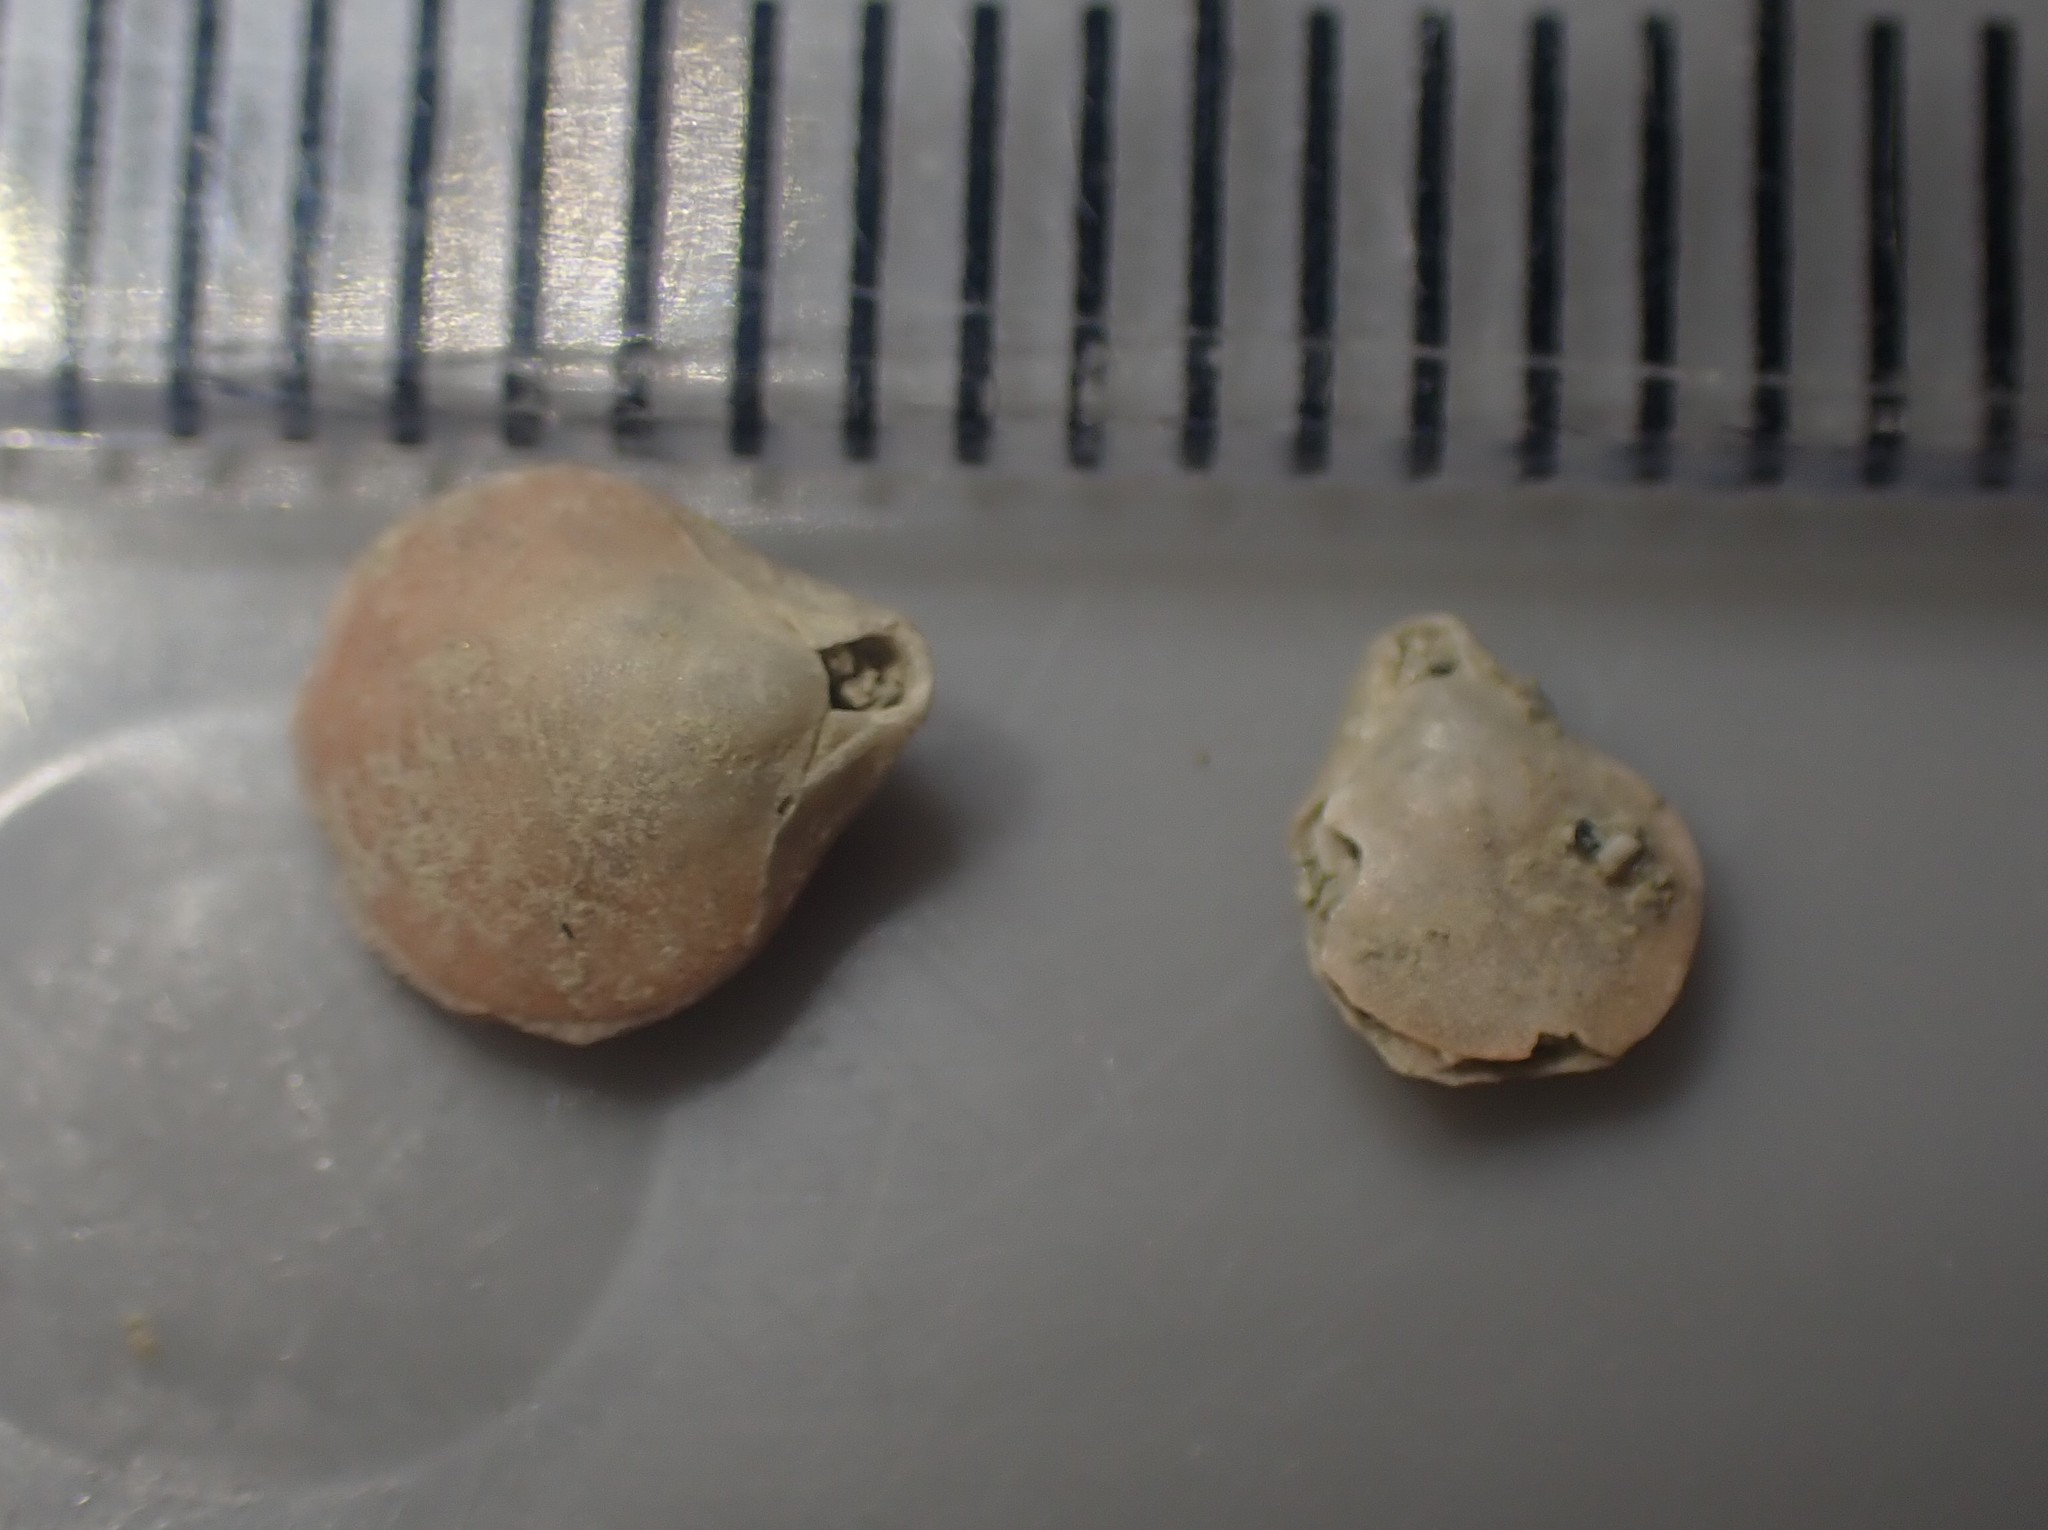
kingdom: Animalia
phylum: Brachiopoda
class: Rhynchonellata
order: Terebratulida
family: Terebratellidae
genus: Calloria
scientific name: Calloria inconspicua
